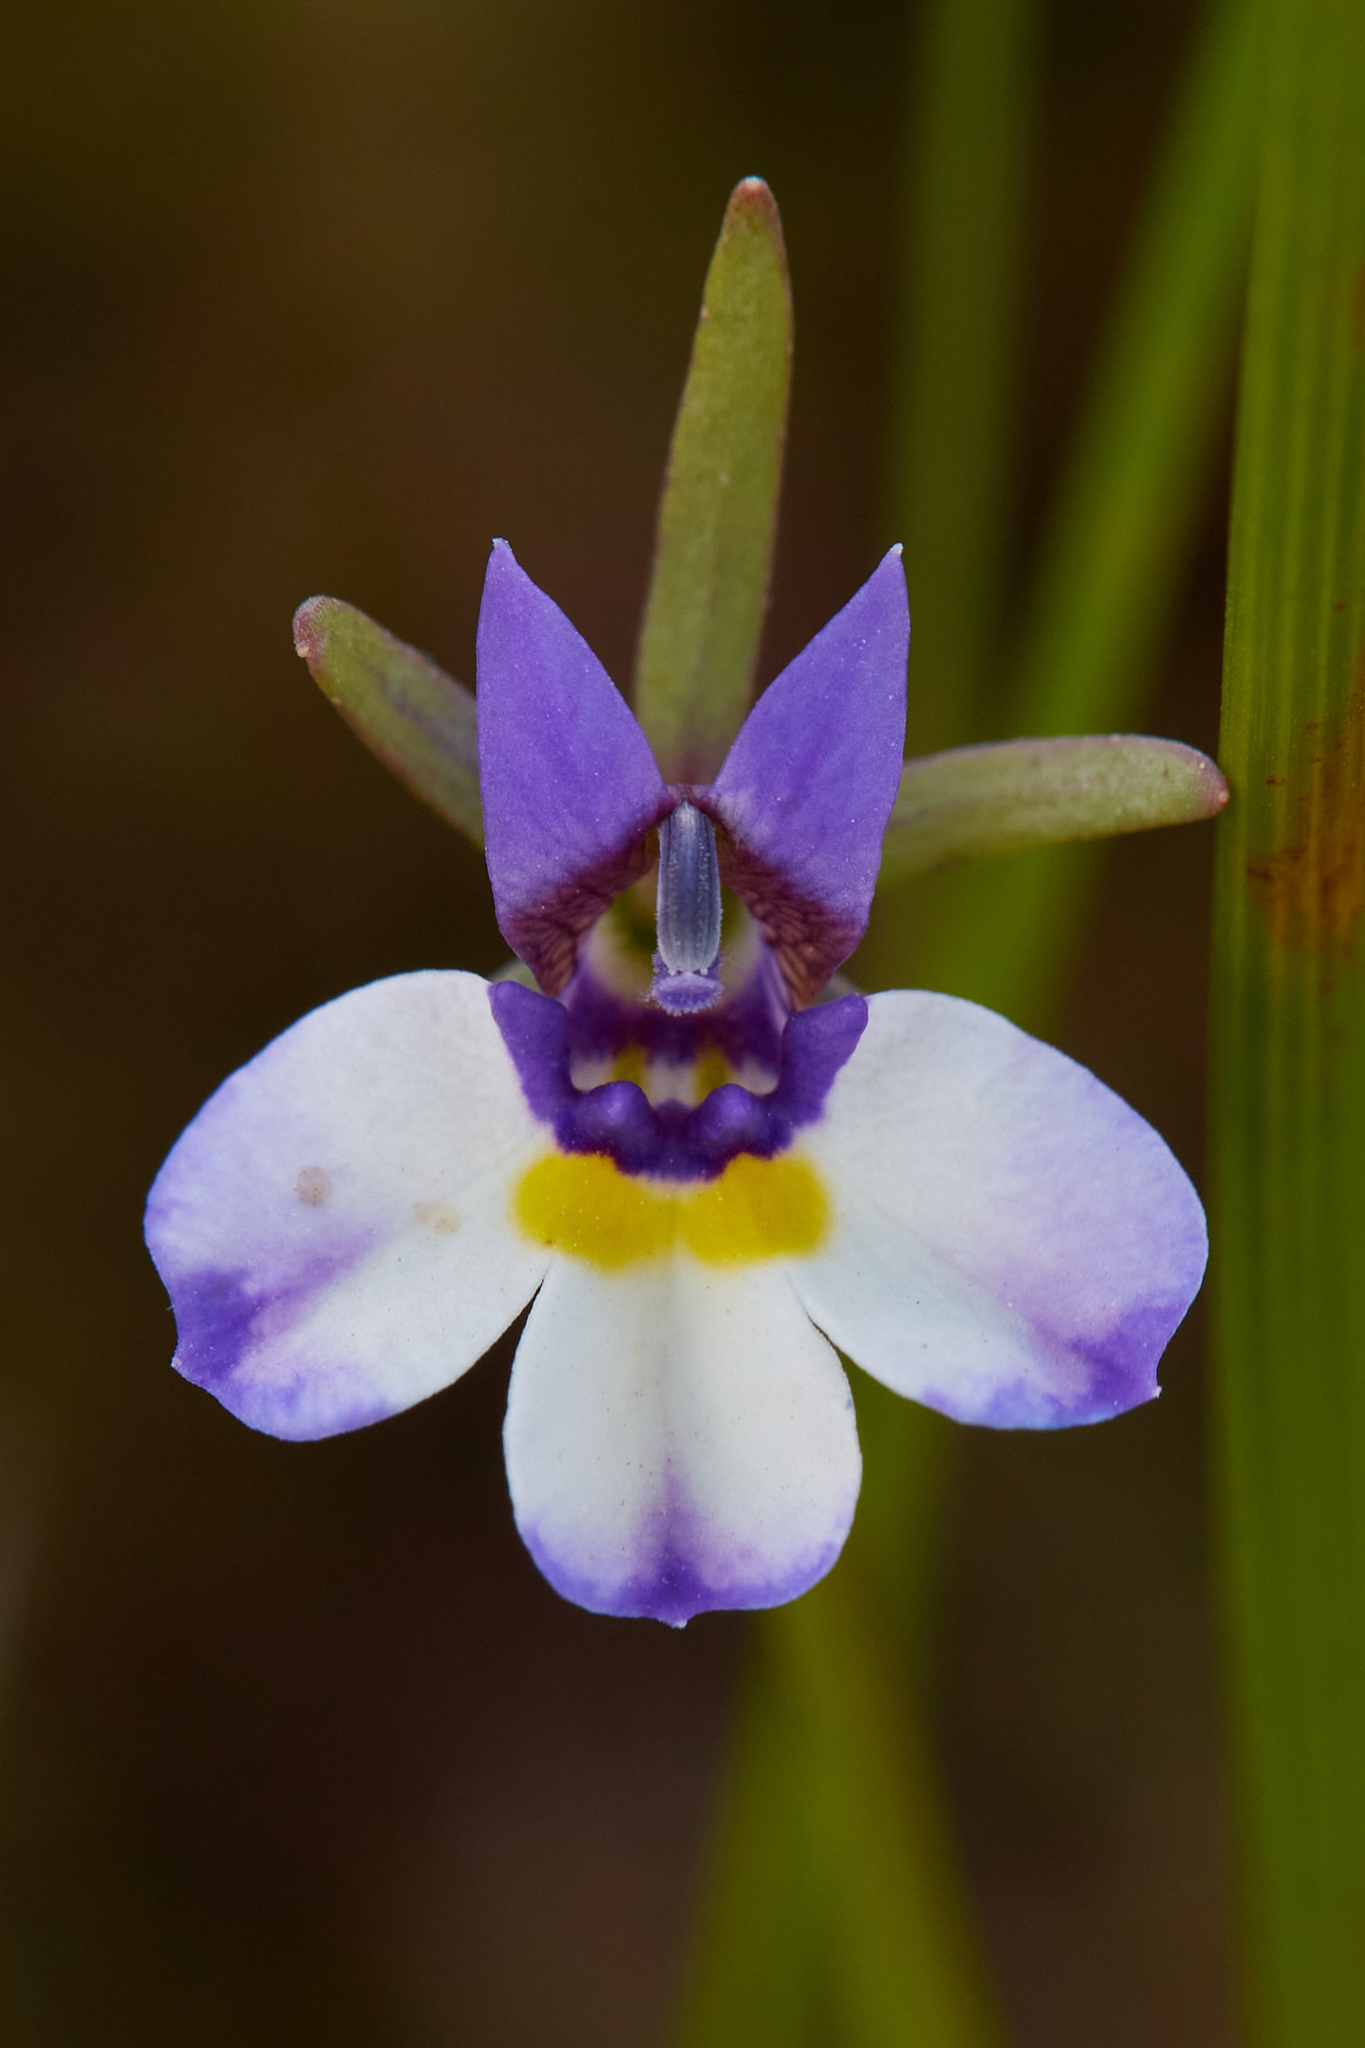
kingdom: Plantae
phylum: Tracheophyta
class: Magnoliopsida
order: Asterales
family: Campanulaceae
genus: Downingia
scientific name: Downingia bicornuta
